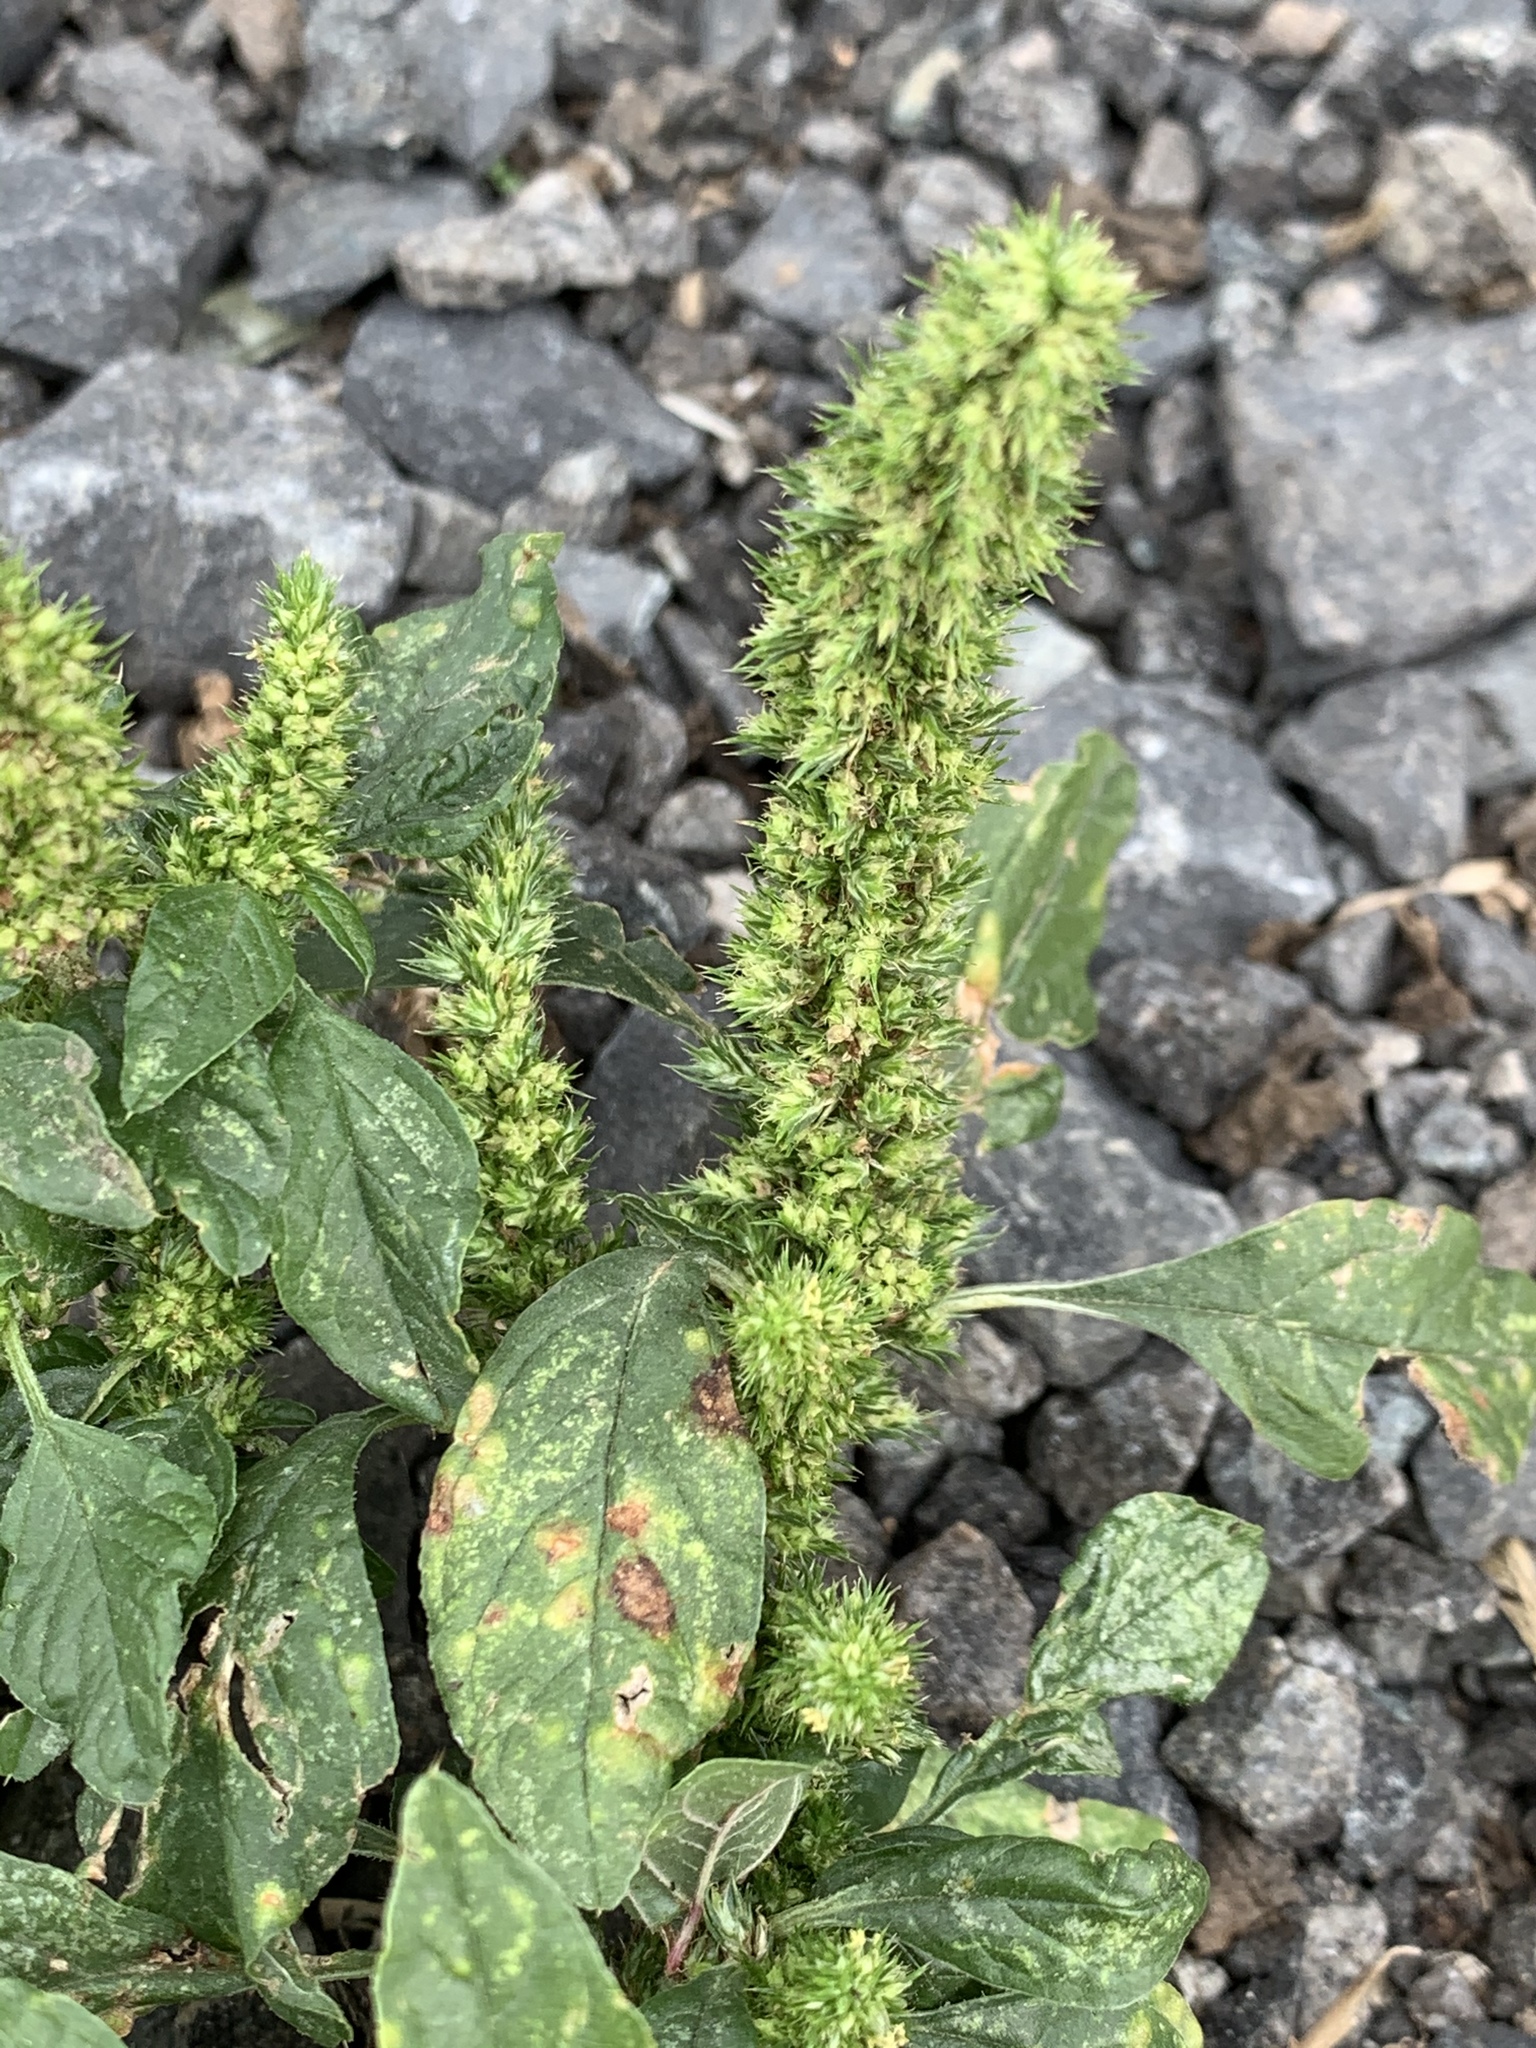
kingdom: Plantae
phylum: Tracheophyta
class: Magnoliopsida
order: Caryophyllales
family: Amaranthaceae
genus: Amaranthus
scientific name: Amaranthus retroflexus
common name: Redroot amaranth
